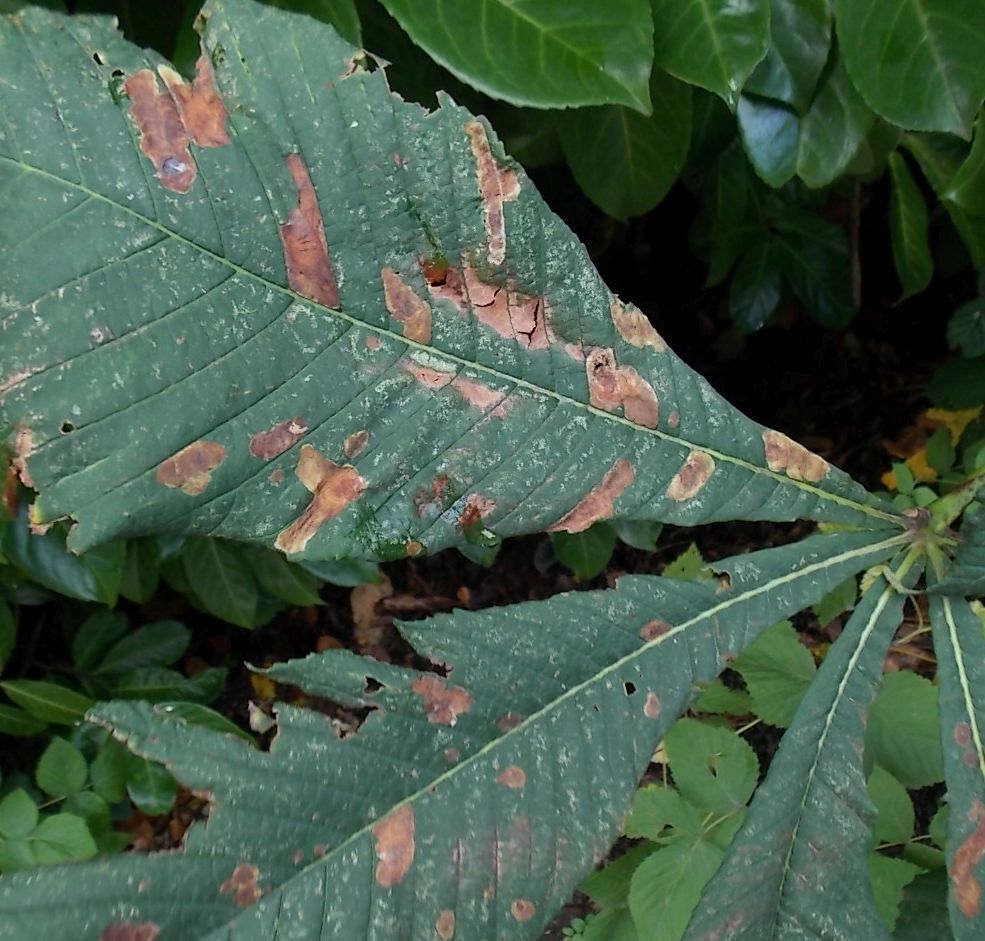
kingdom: Animalia
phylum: Arthropoda
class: Insecta
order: Lepidoptera
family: Gracillariidae
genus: Cameraria
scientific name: Cameraria ohridella
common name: Horse-chestnut leaf-miner
